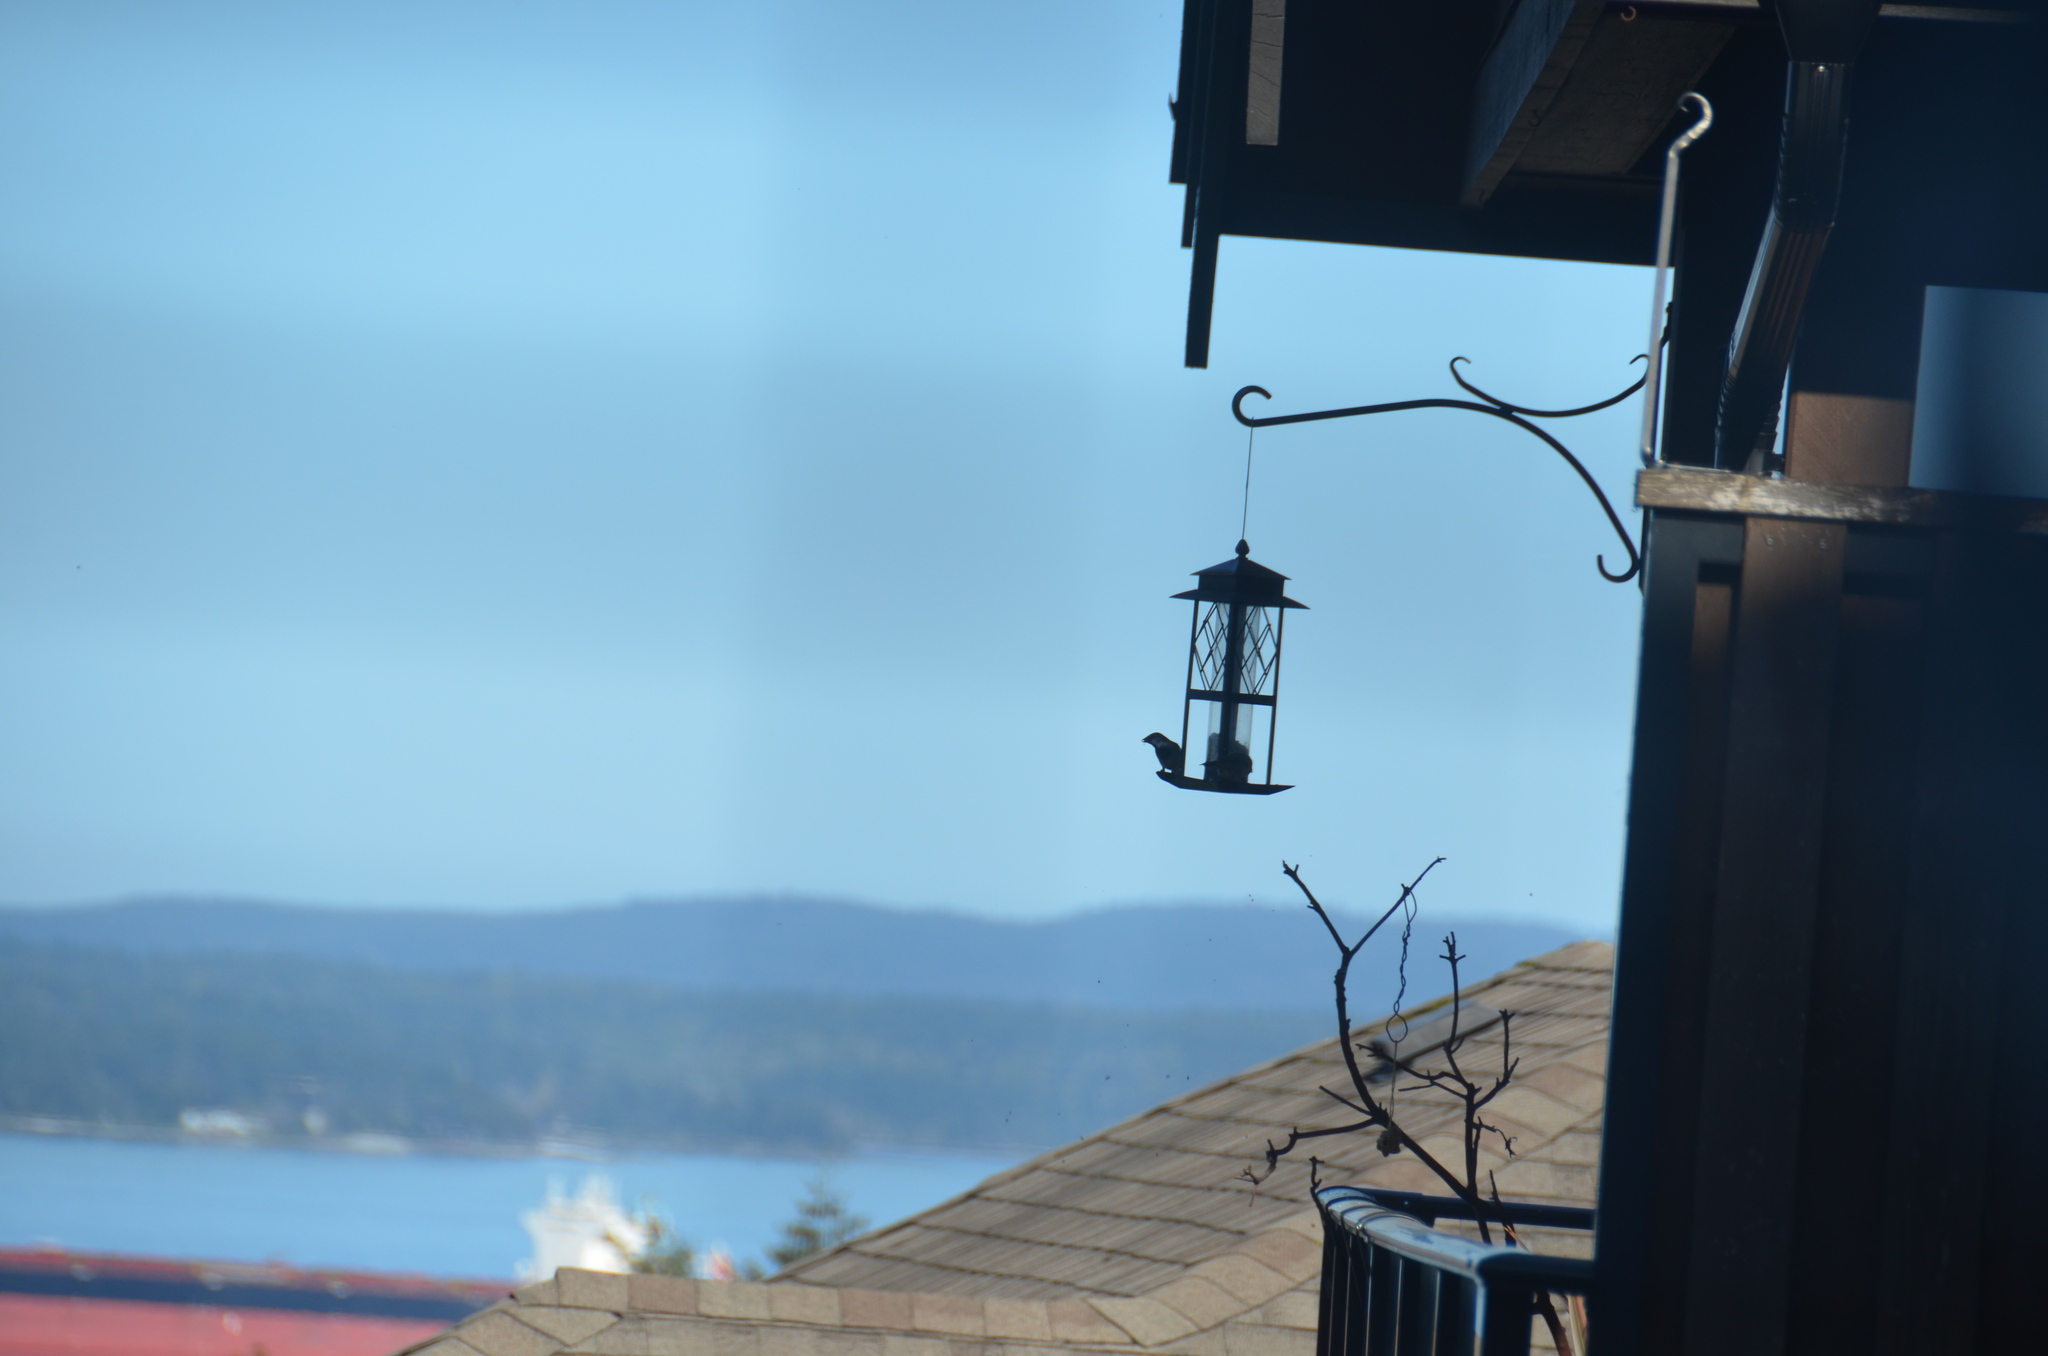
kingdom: Animalia
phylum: Chordata
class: Aves
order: Passeriformes
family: Passeridae
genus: Passer
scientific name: Passer domesticus
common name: House sparrow
